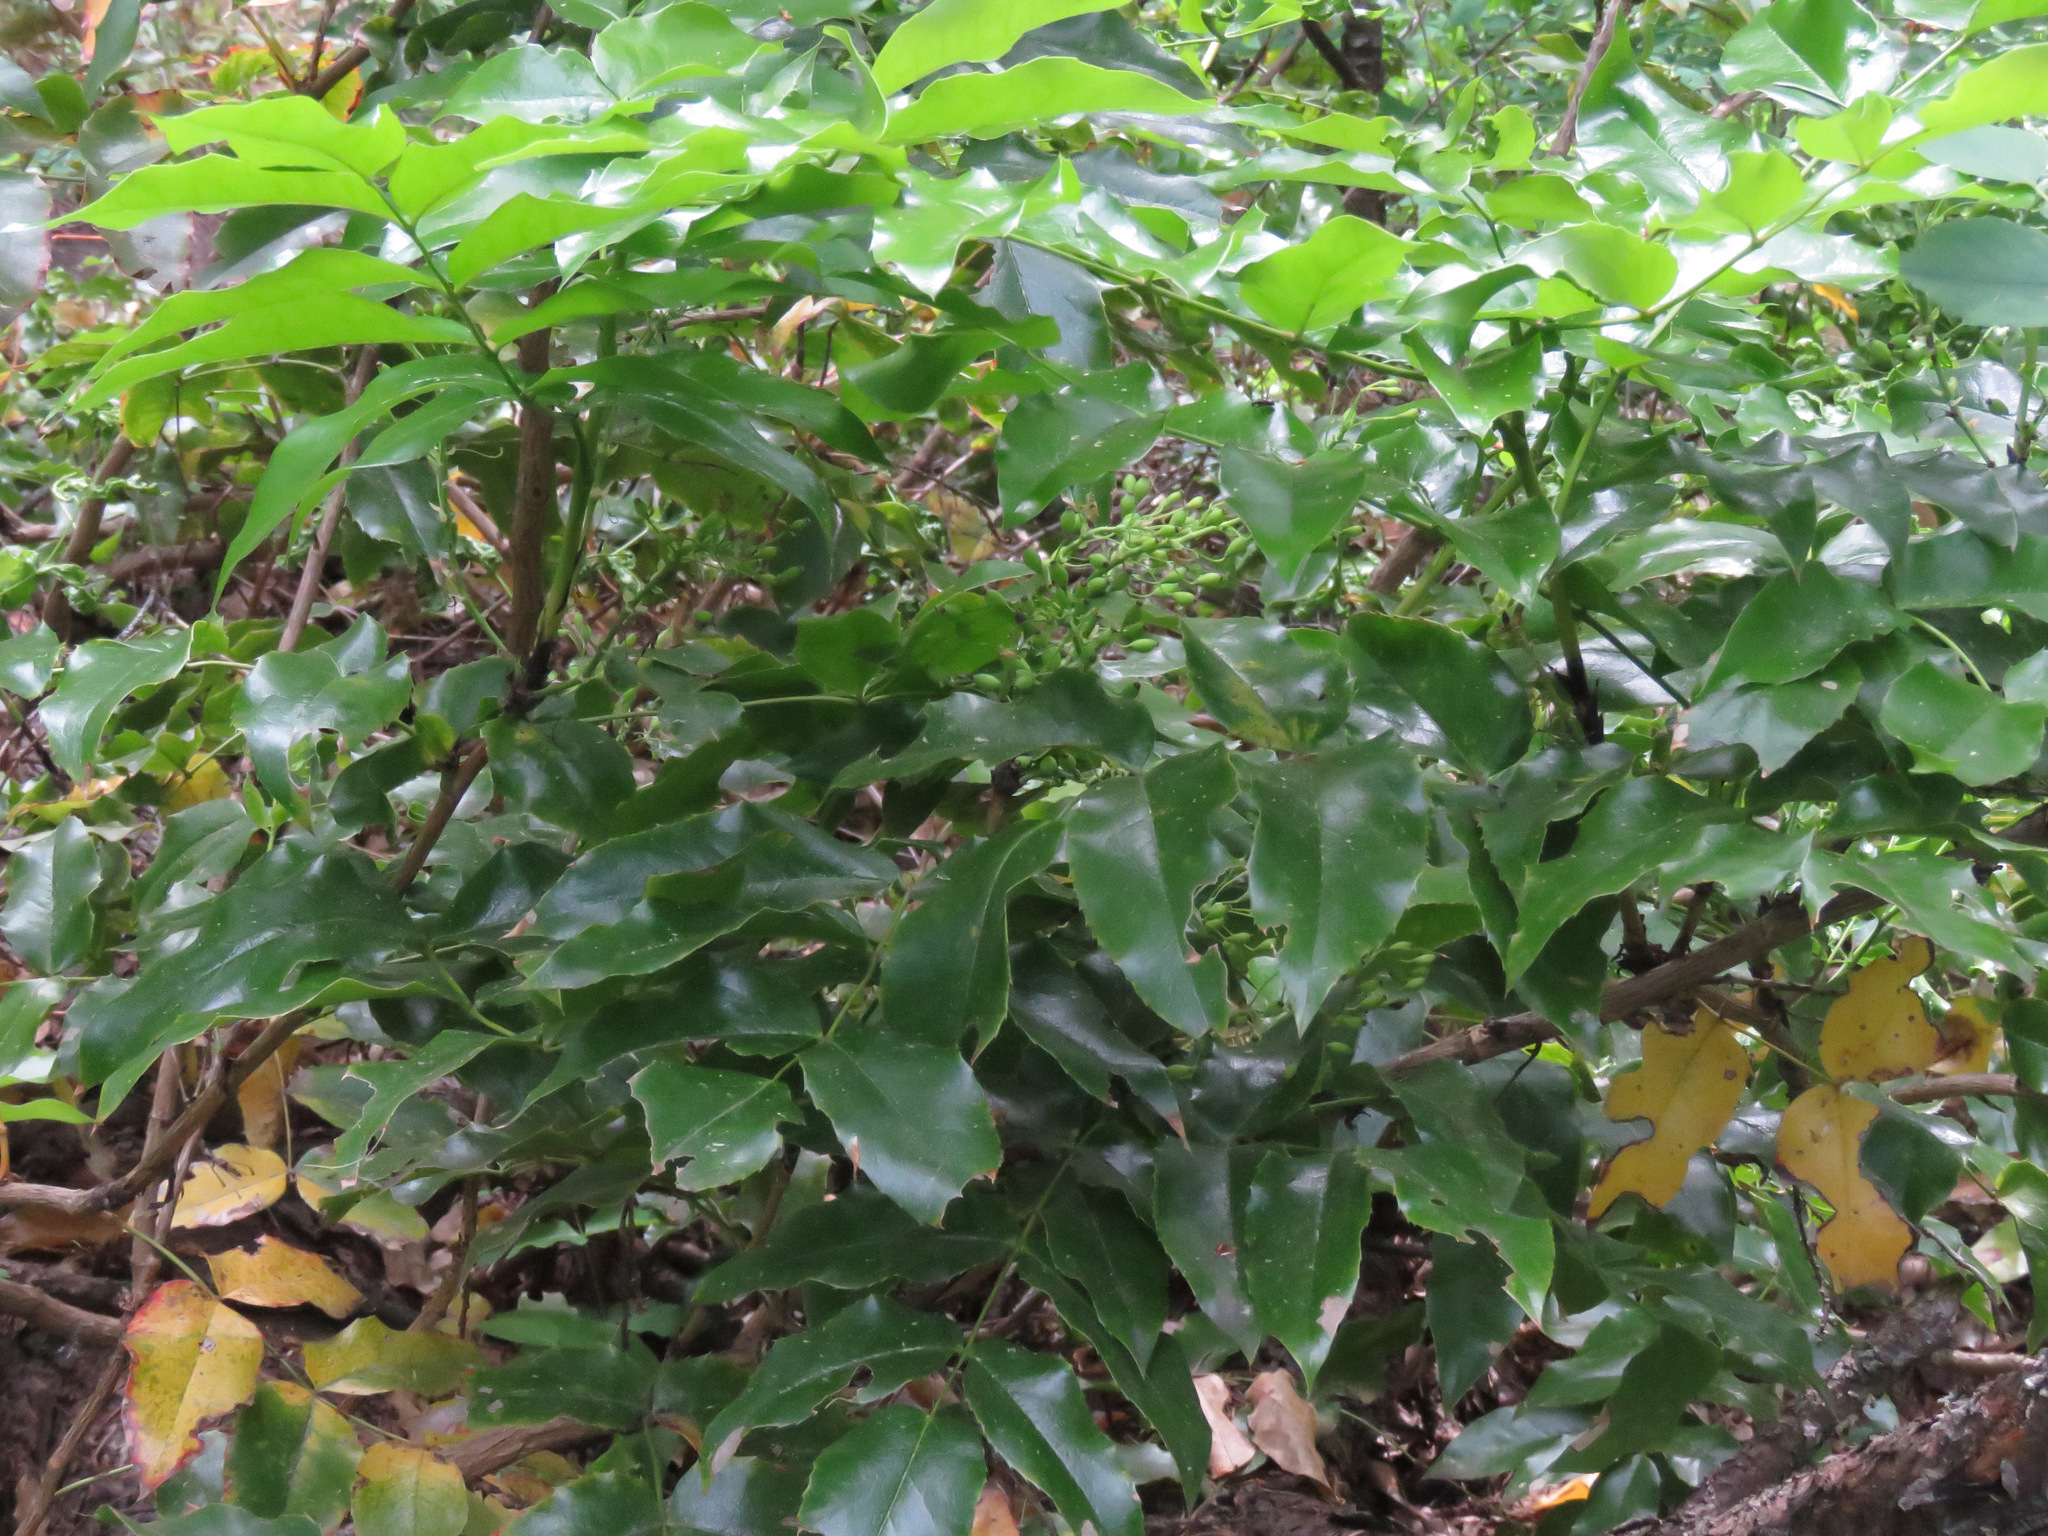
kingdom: Plantae
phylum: Tracheophyta
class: Magnoliopsida
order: Ranunculales
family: Berberidaceae
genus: Mahonia
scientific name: Mahonia aquifolium
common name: Oregon-grape
